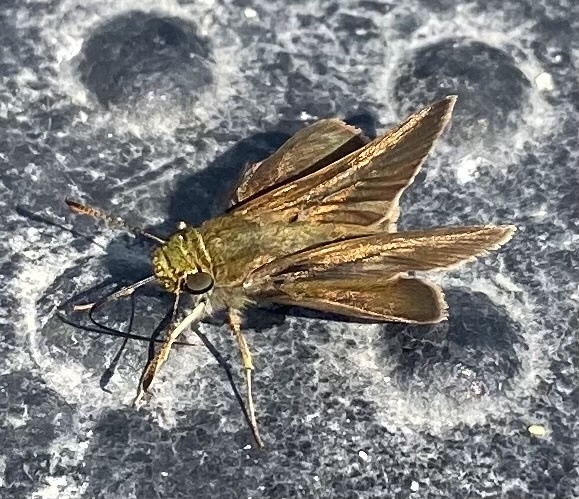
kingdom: Animalia
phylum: Arthropoda
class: Insecta
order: Lepidoptera
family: Hesperiidae
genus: Euphyes
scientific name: Euphyes vestris
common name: Dun skipper
